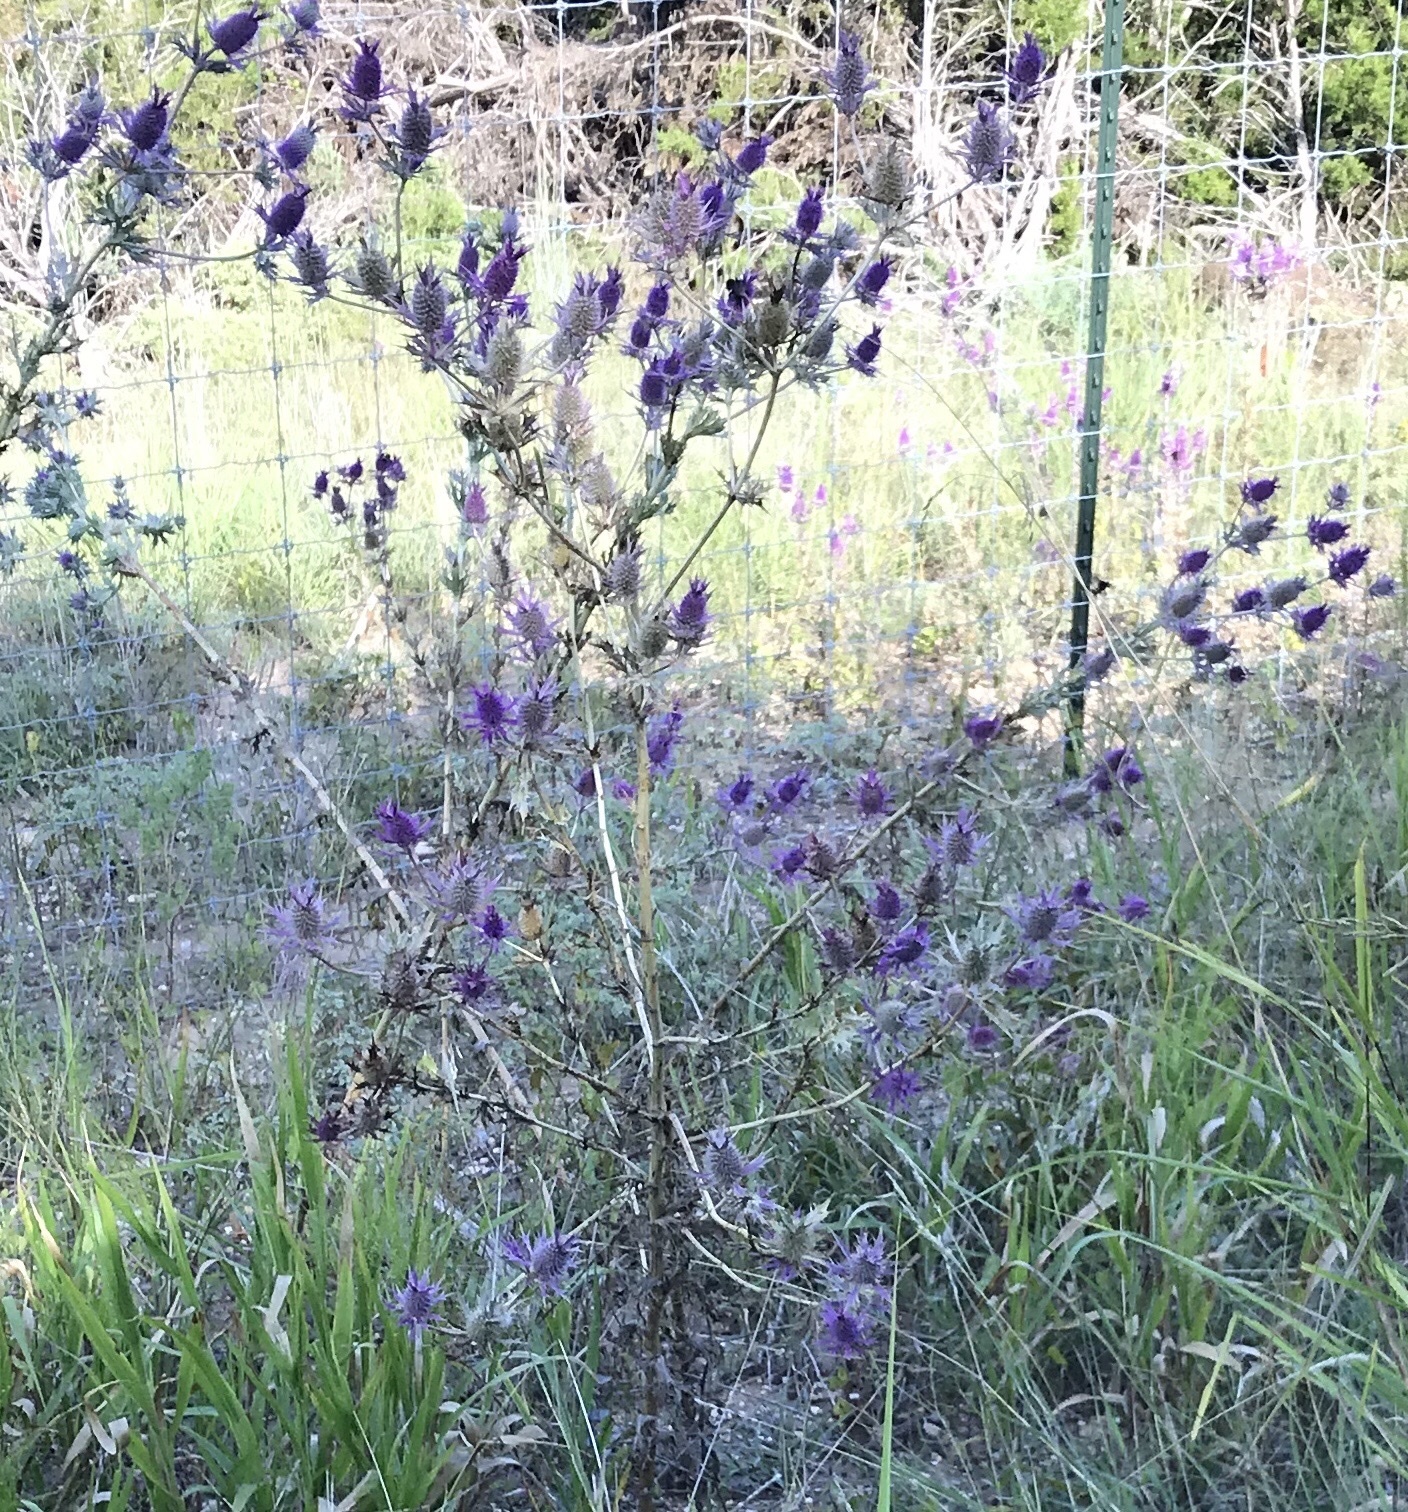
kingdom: Plantae
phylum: Tracheophyta
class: Magnoliopsida
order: Apiales
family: Apiaceae
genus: Eryngium
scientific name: Eryngium leavenworthii
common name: Leavenworth's eryngo
